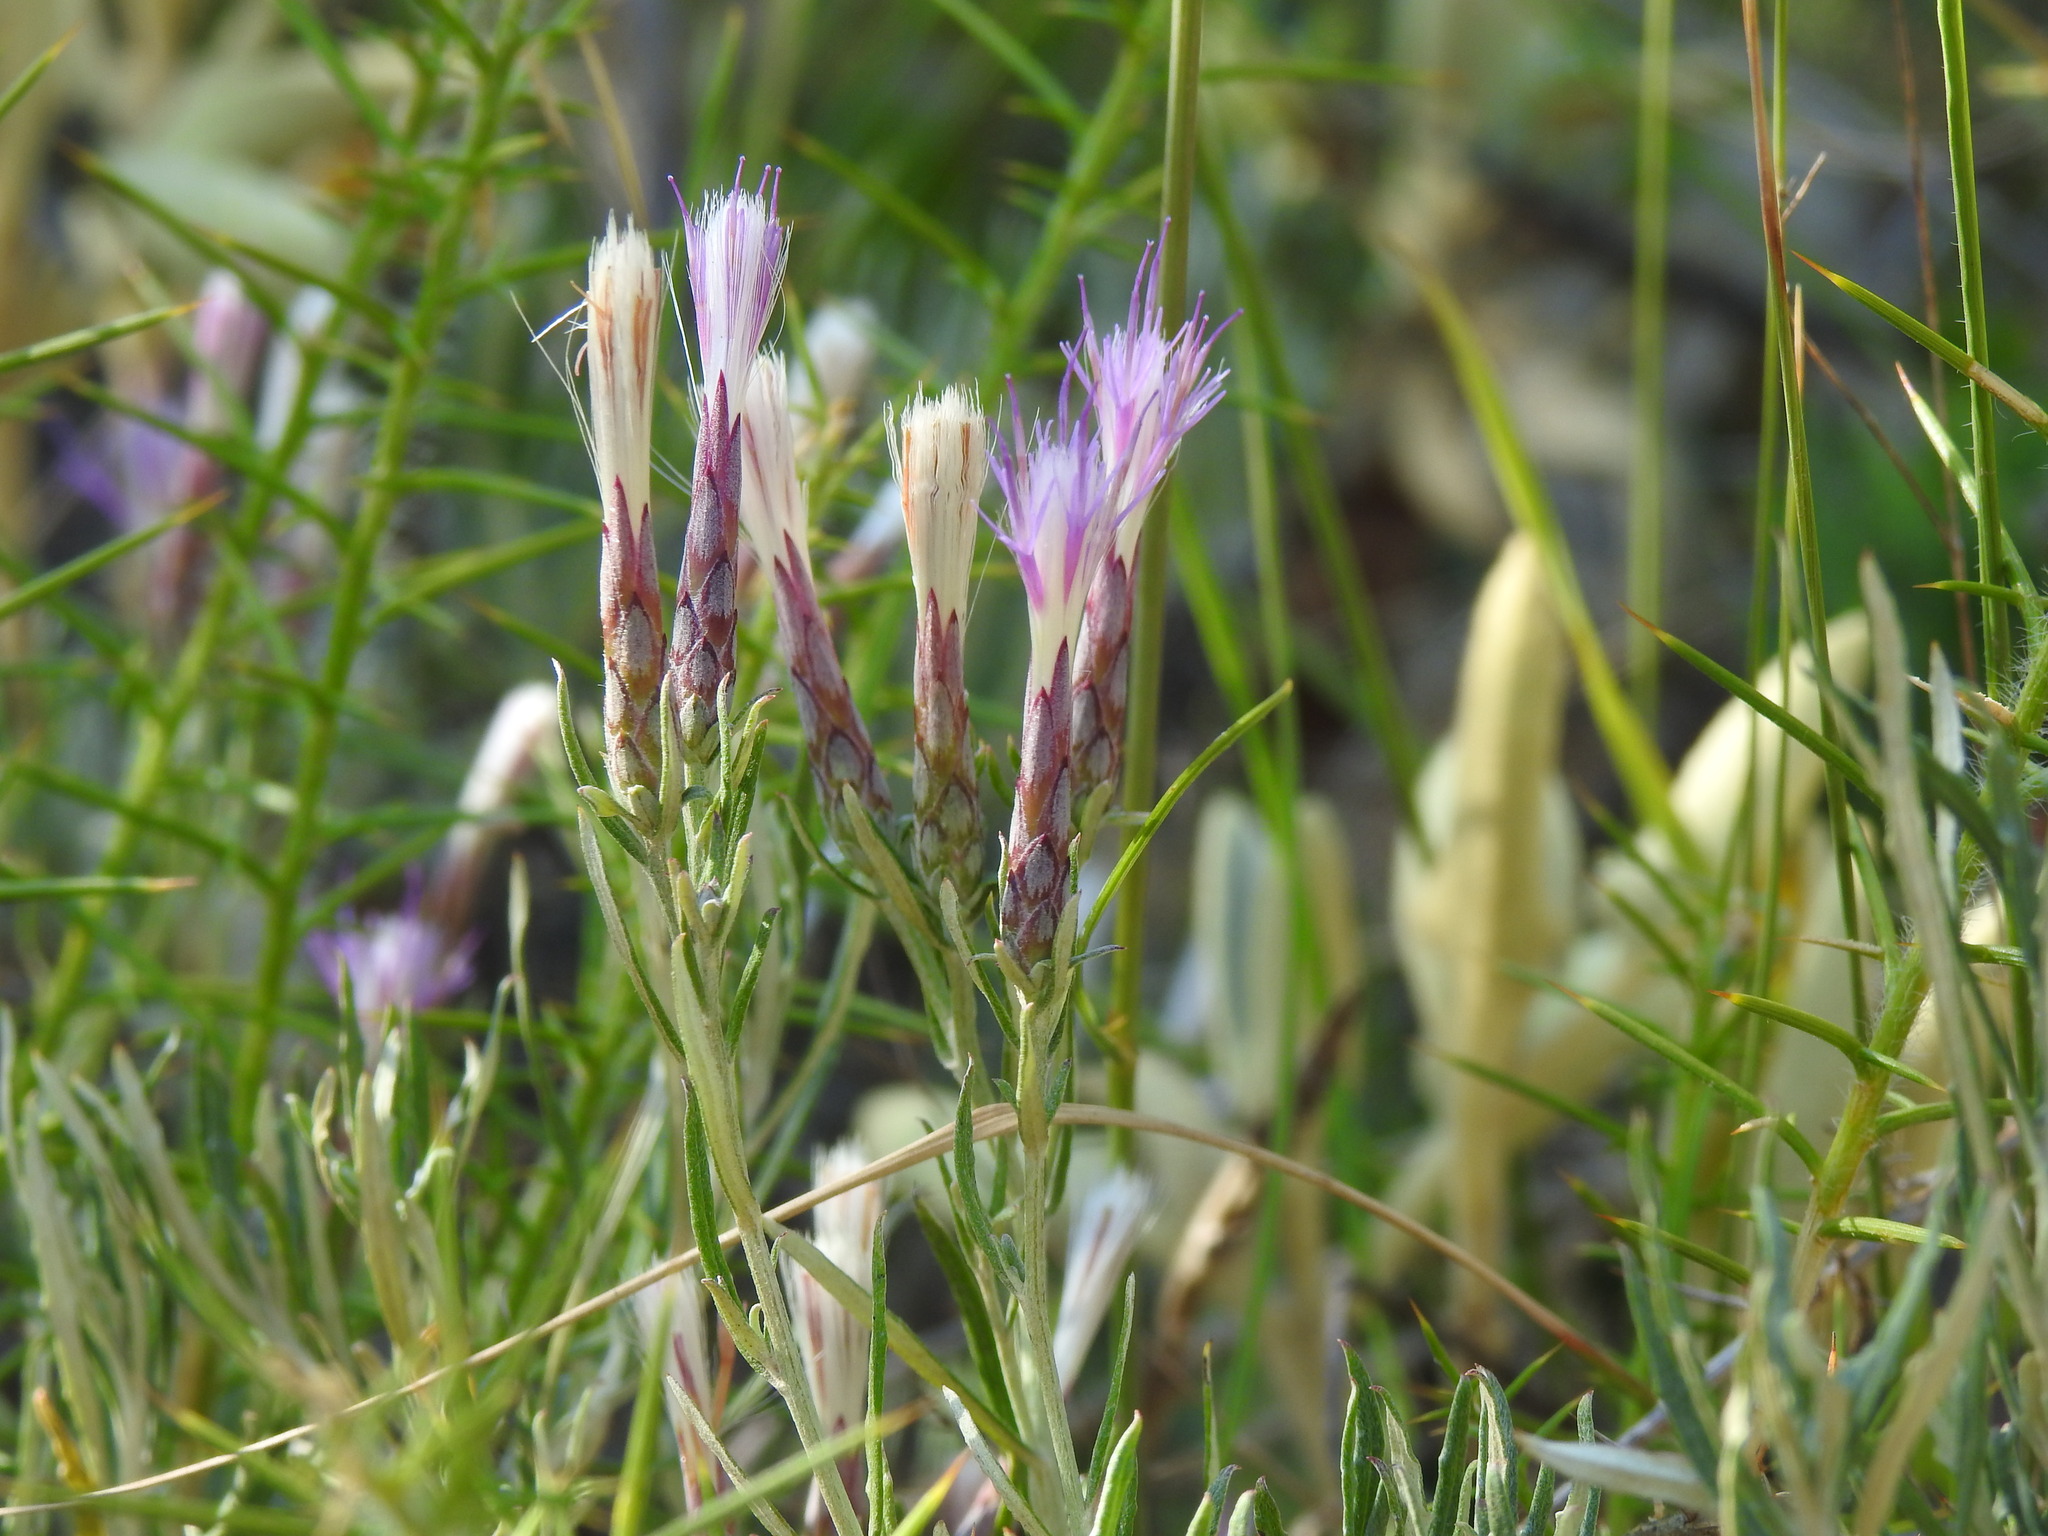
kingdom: Plantae
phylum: Tracheophyta
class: Magnoliopsida
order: Asterales
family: Asteraceae
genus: Staehelina
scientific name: Staehelina dubia
